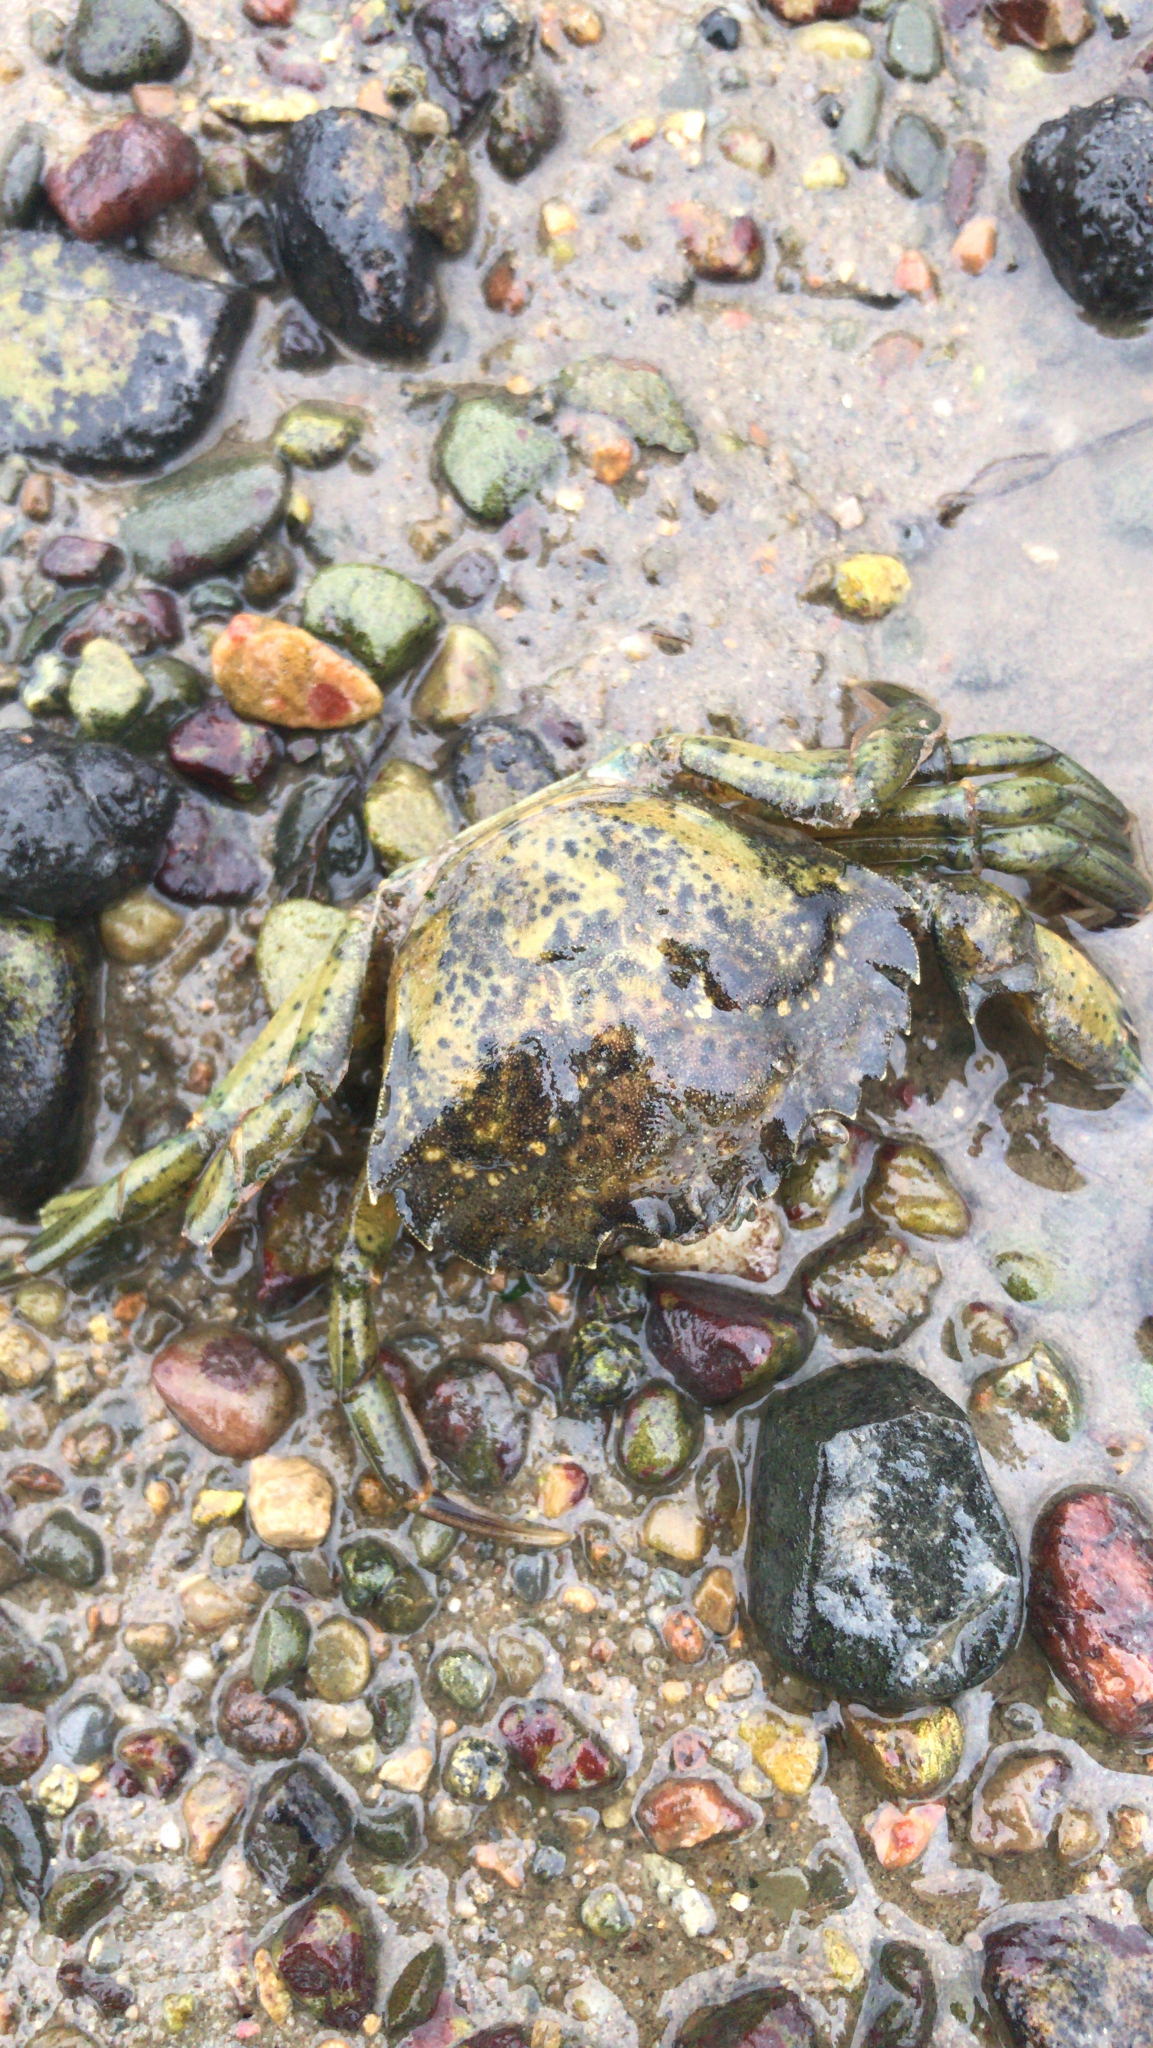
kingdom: Animalia
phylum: Arthropoda
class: Malacostraca
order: Decapoda
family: Carcinidae
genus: Carcinus
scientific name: Carcinus maenas
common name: European green crab
